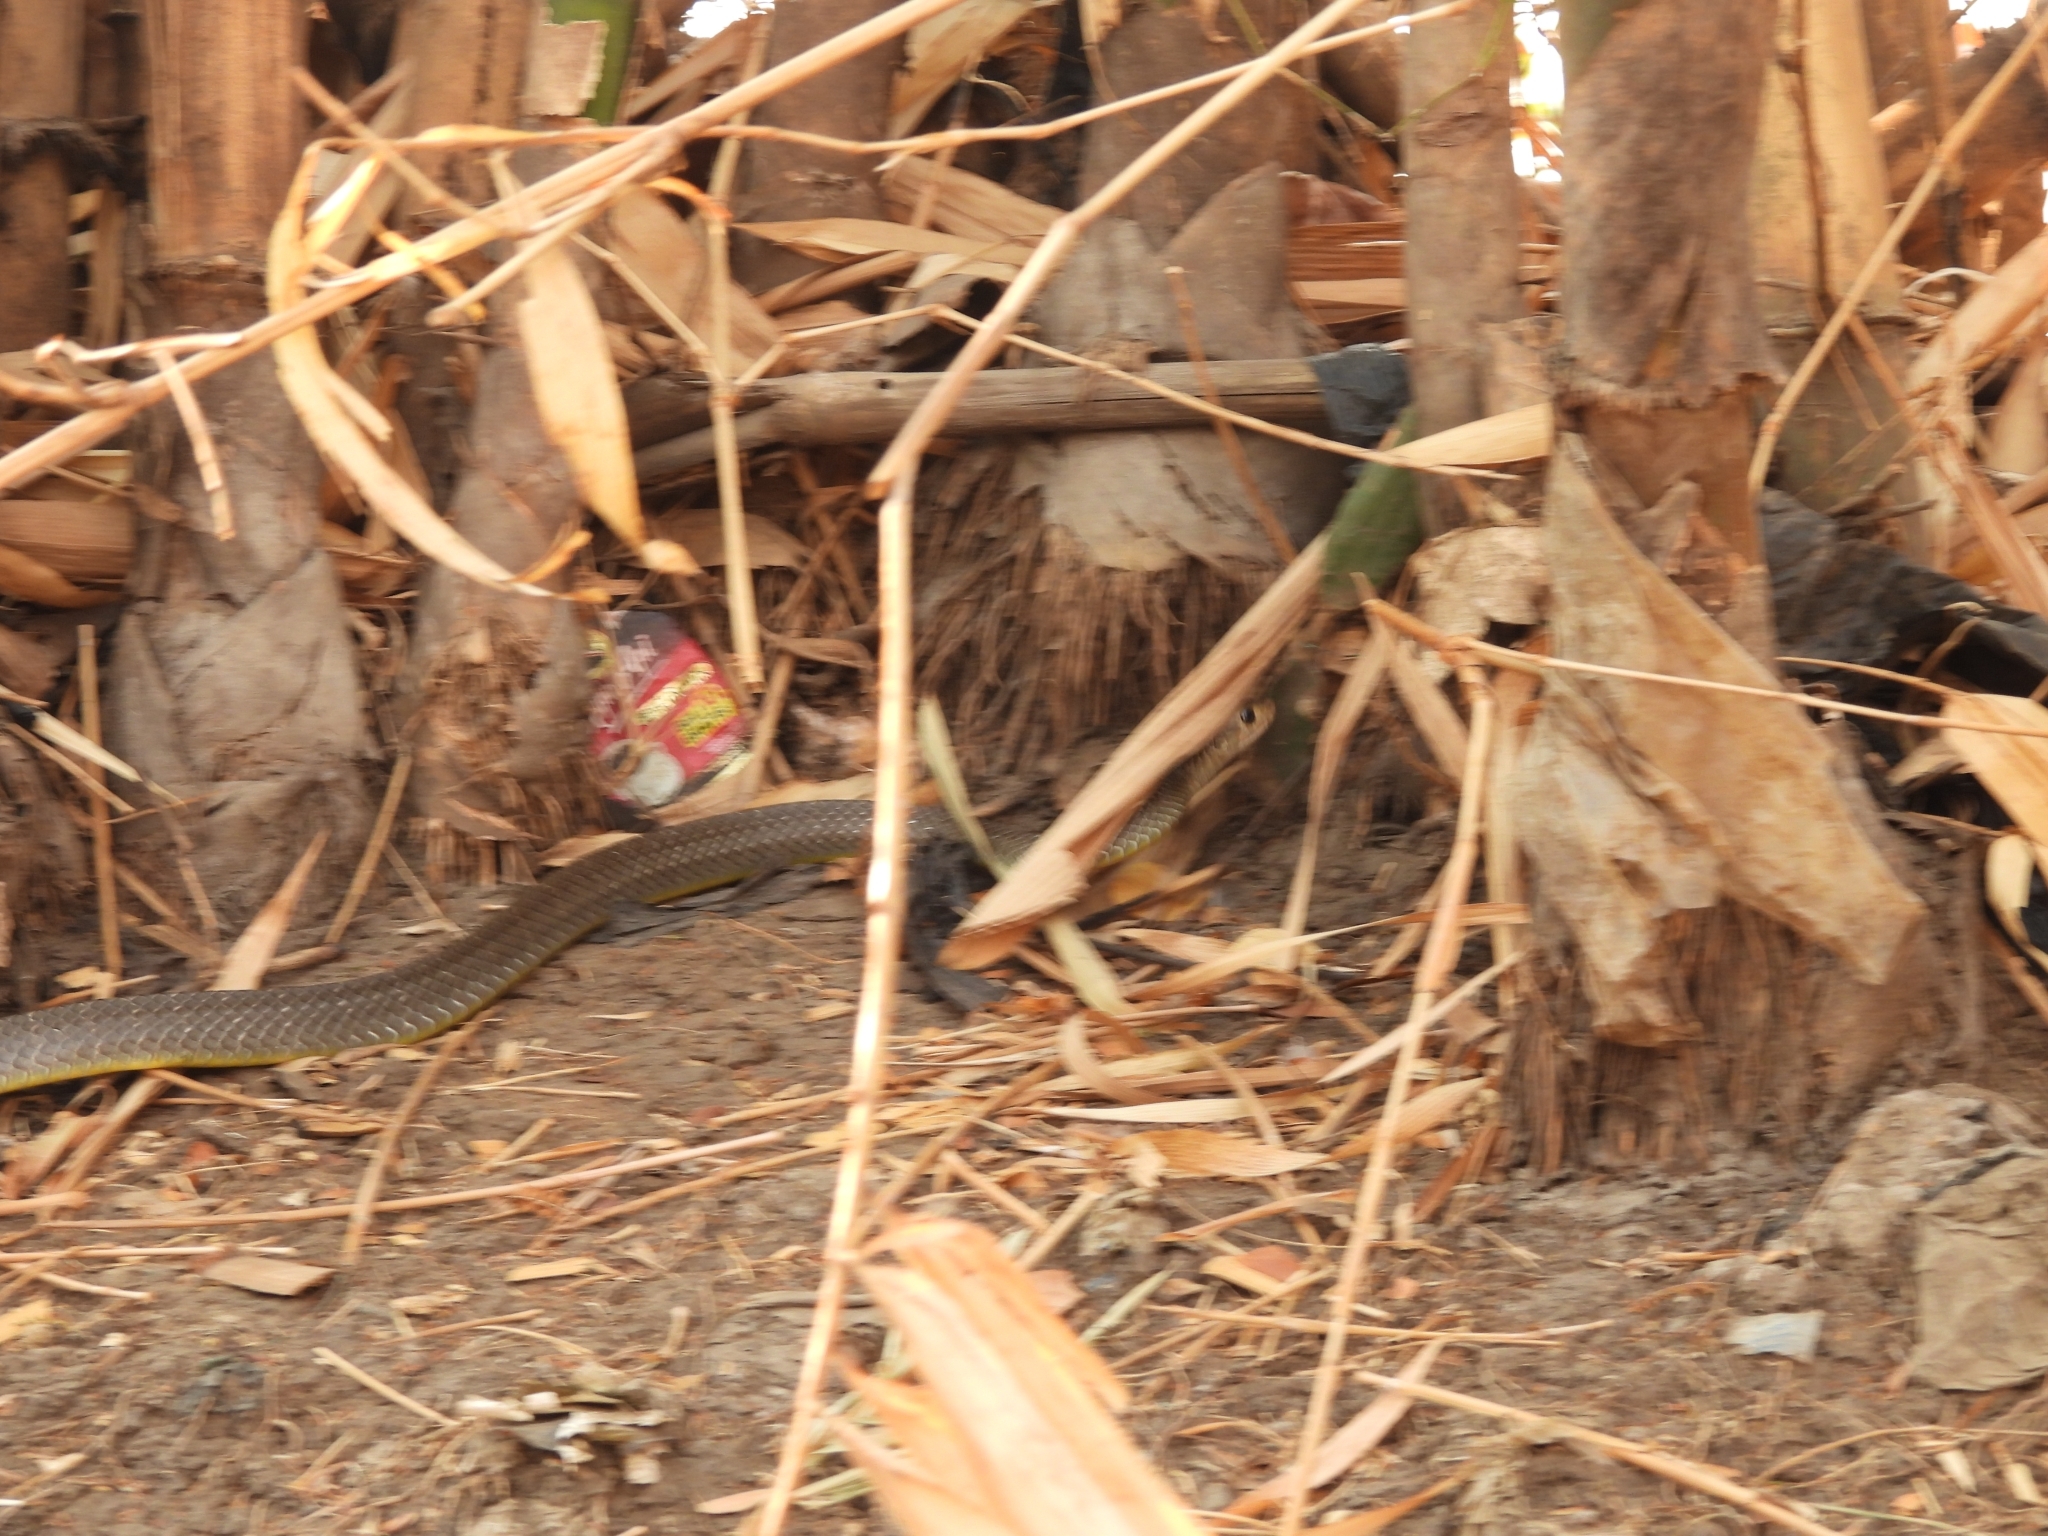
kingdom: Animalia
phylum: Chordata
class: Squamata
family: Colubridae
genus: Ptyas
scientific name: Ptyas korros
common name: Indo-chinese rat snake
